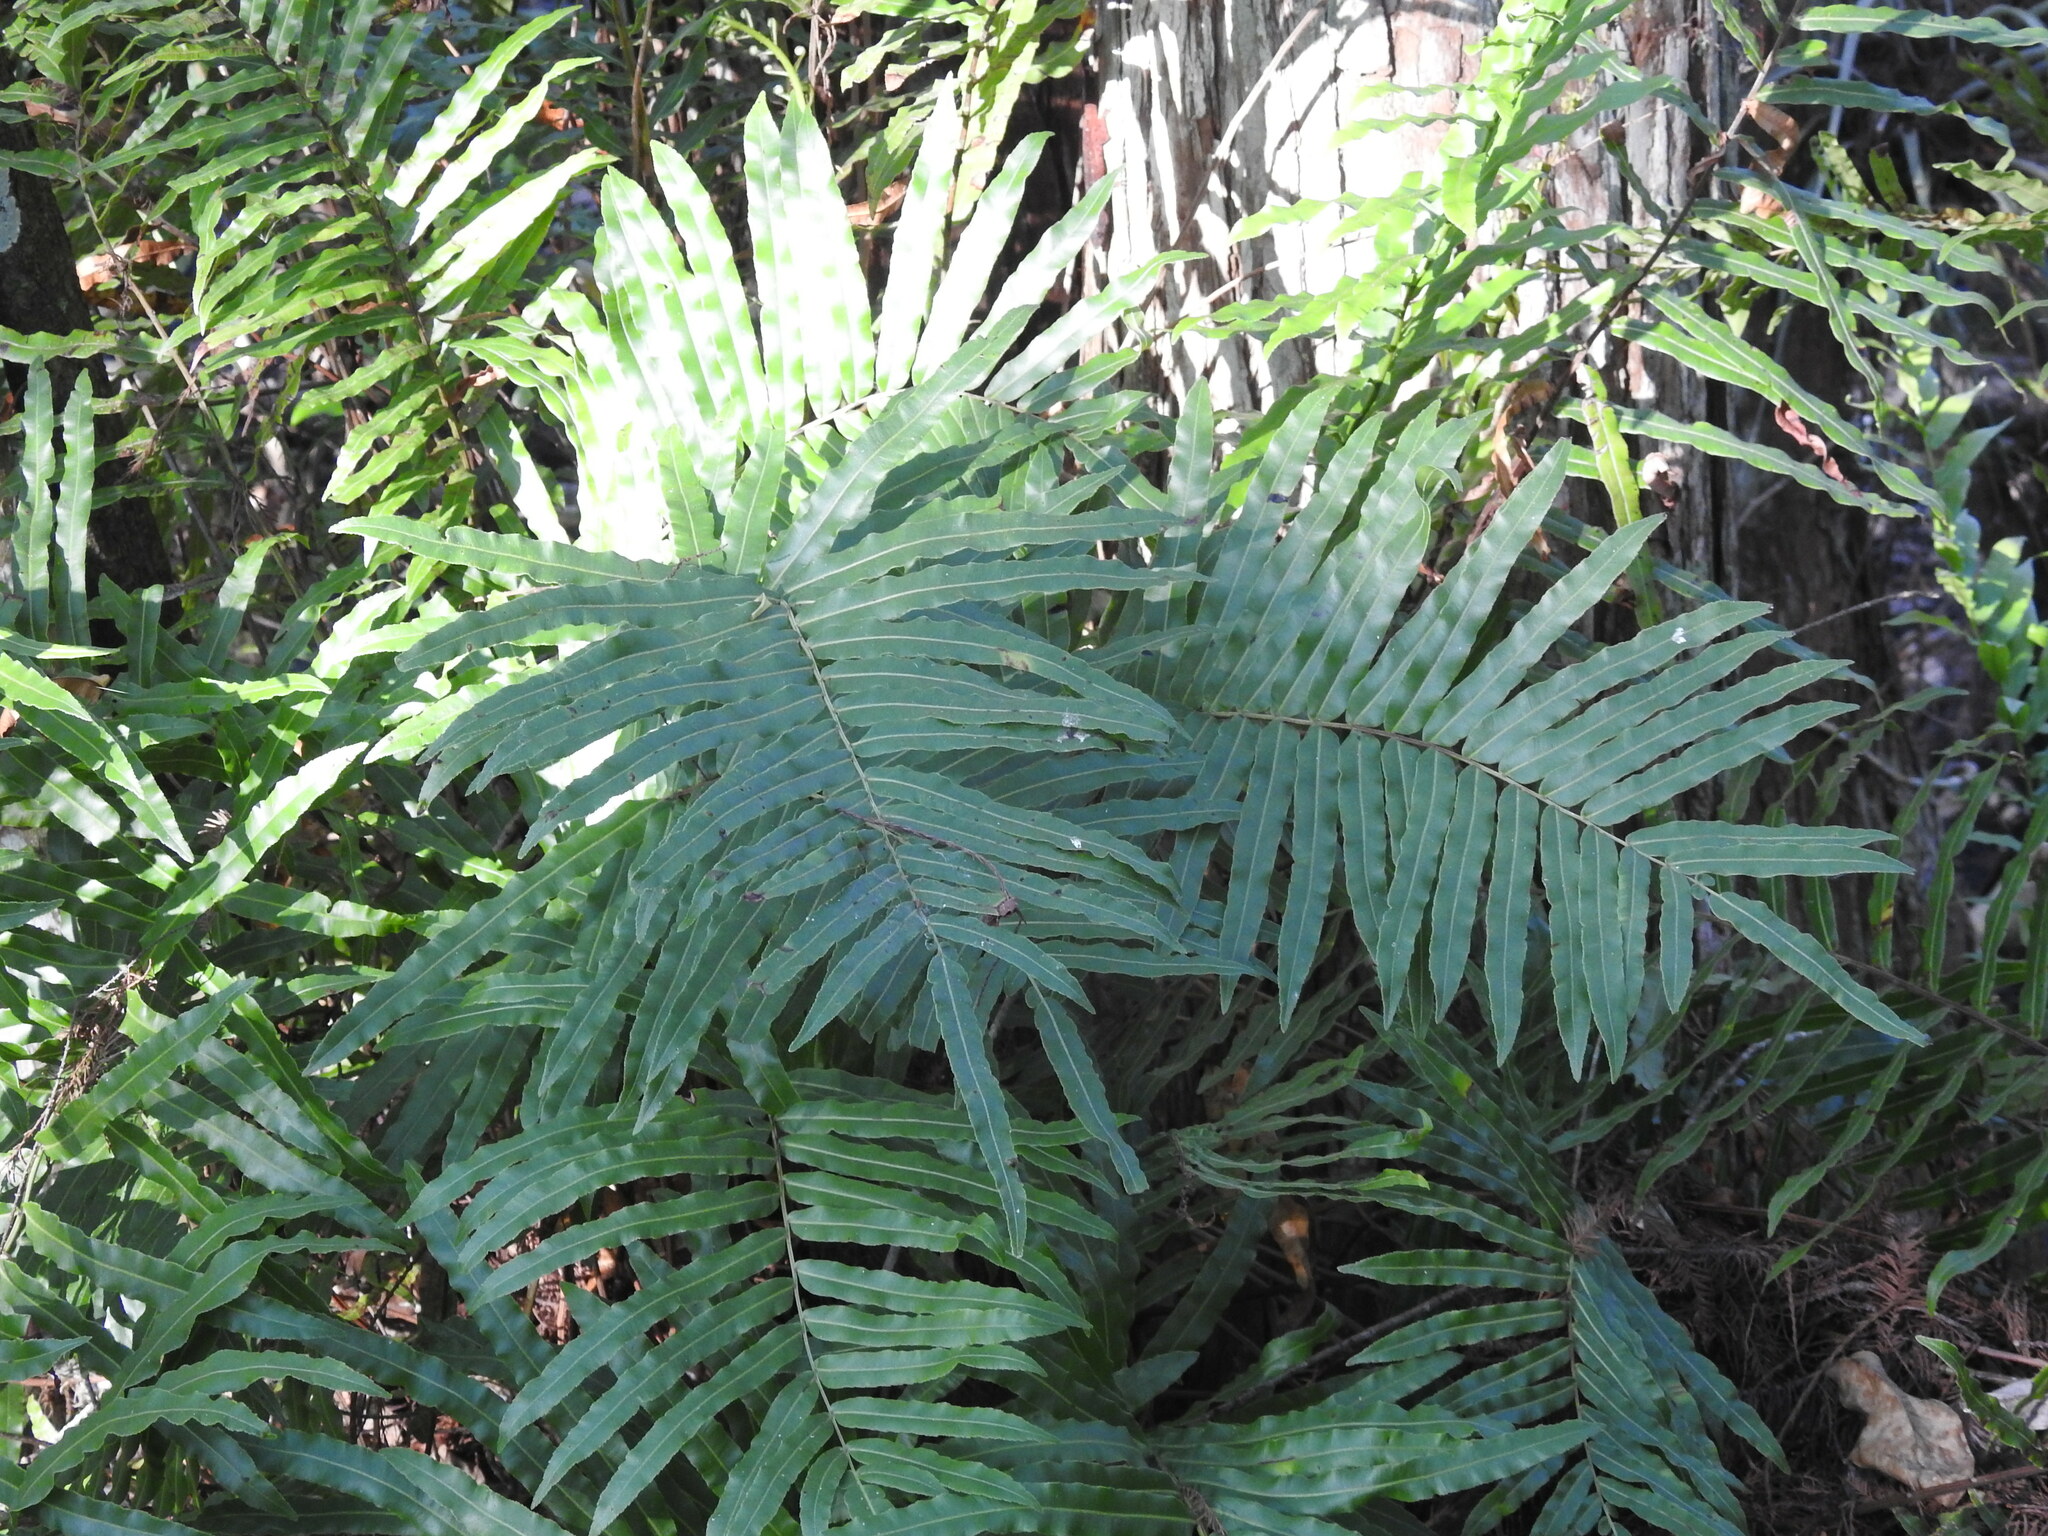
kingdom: Plantae
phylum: Tracheophyta
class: Polypodiopsida
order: Polypodiales
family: Blechnaceae
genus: Telmatoblechnum
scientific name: Telmatoblechnum serrulatum
